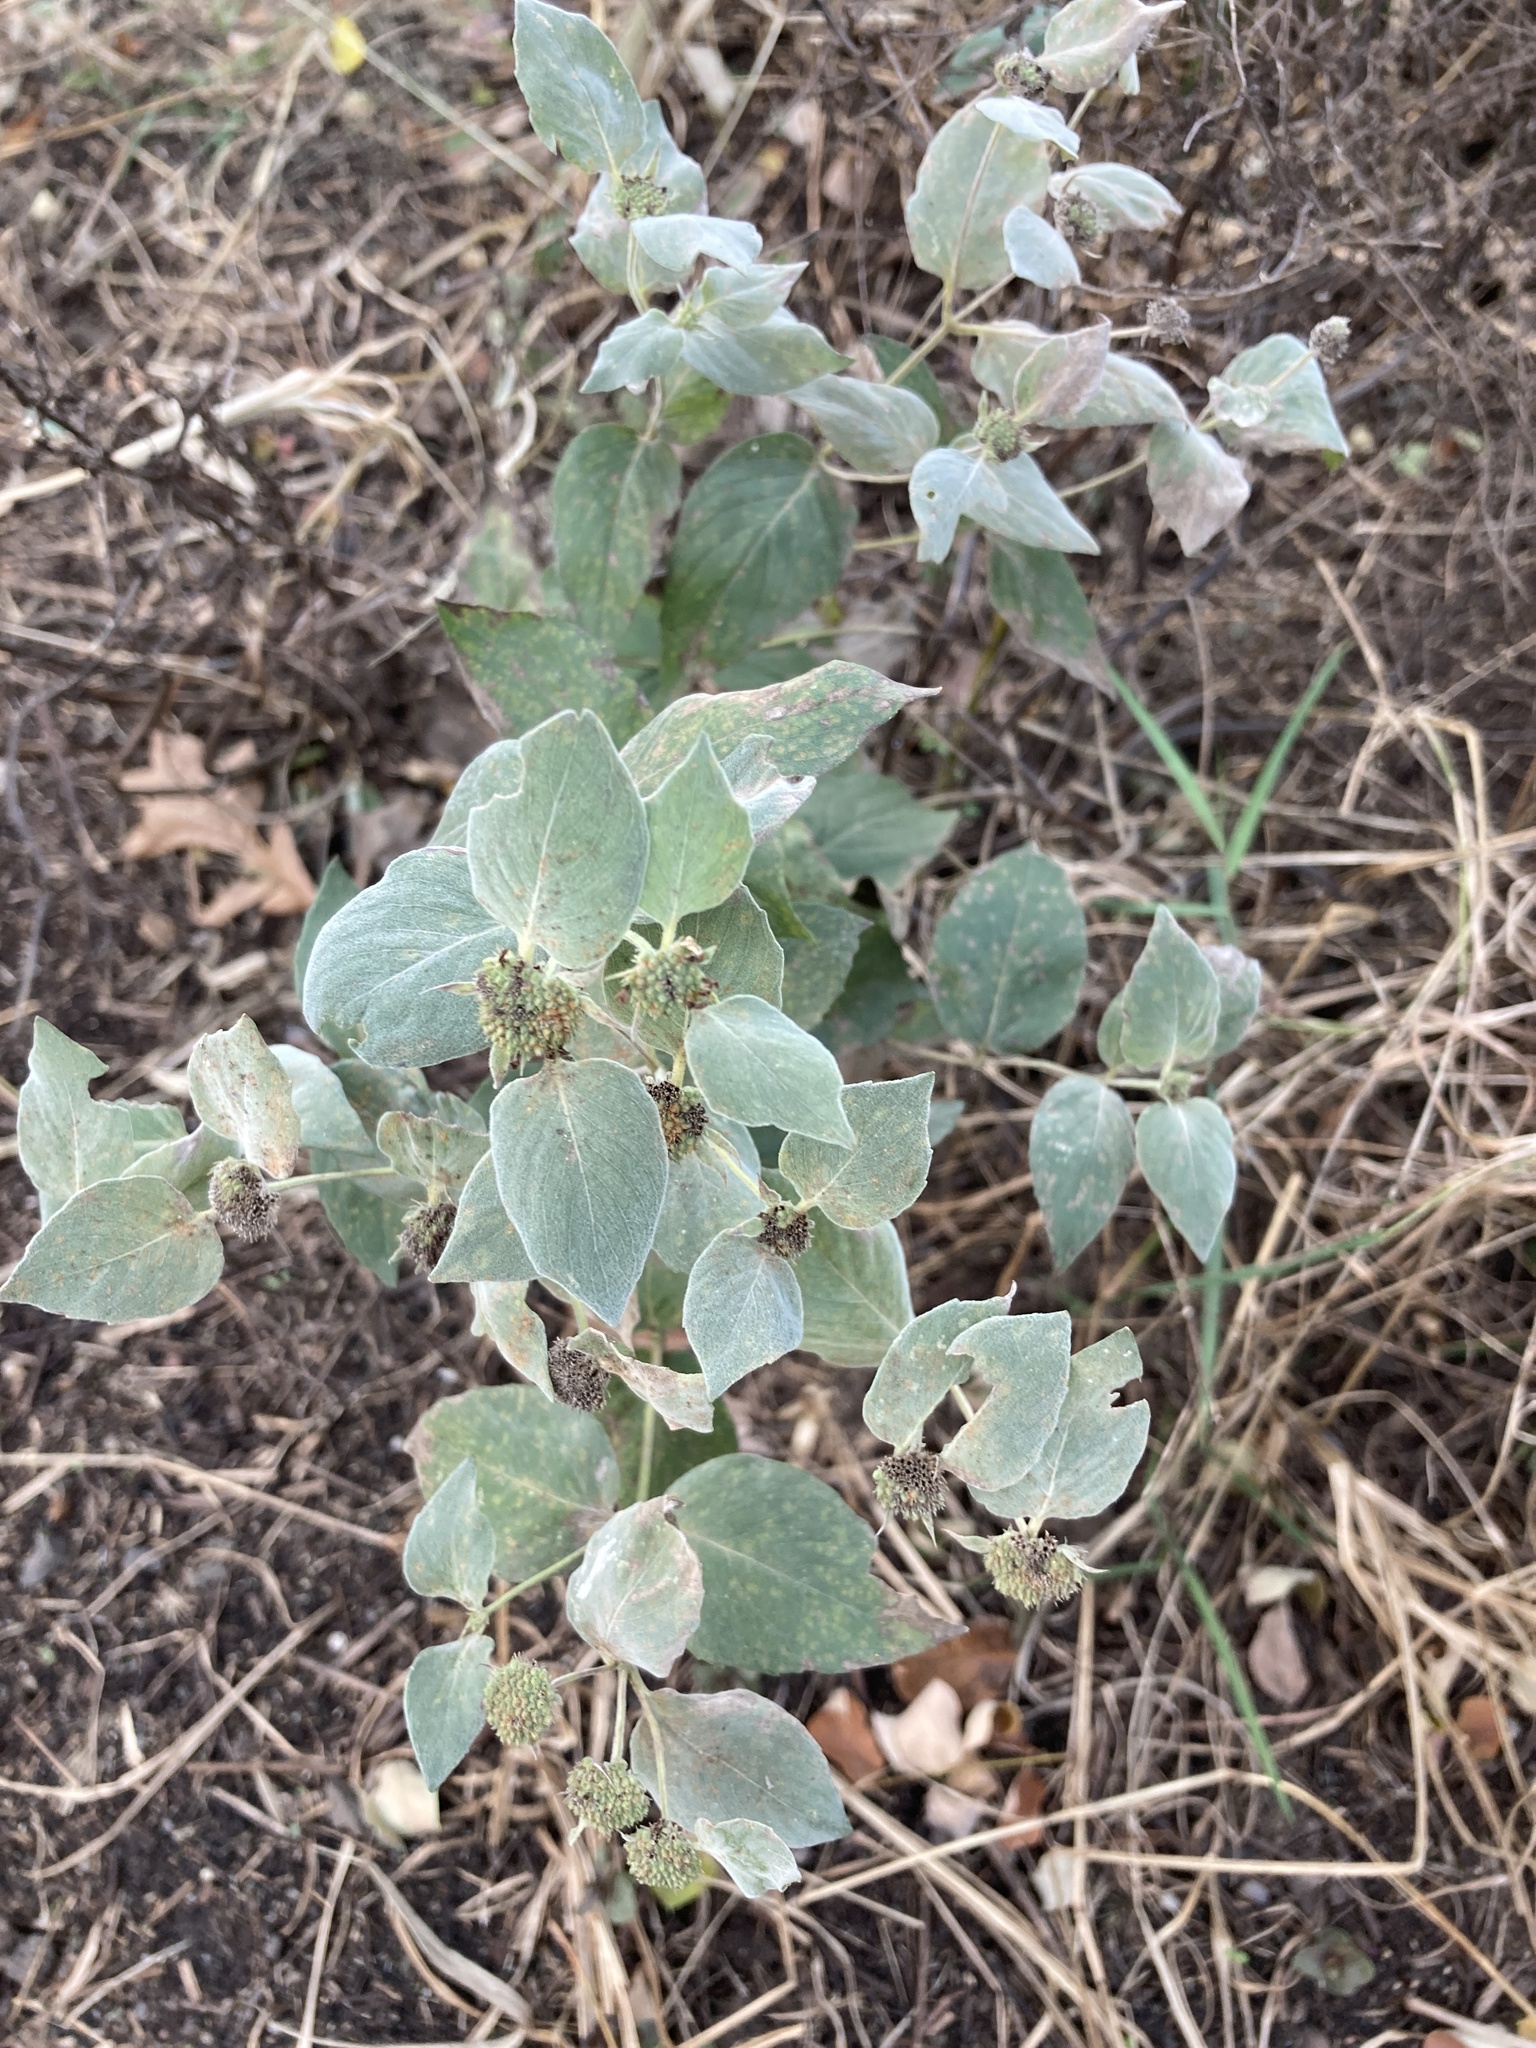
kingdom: Plantae
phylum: Tracheophyta
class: Magnoliopsida
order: Lamiales
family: Lamiaceae
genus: Pycnanthemum
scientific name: Pycnanthemum muticum
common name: Blunt mountain-mint
